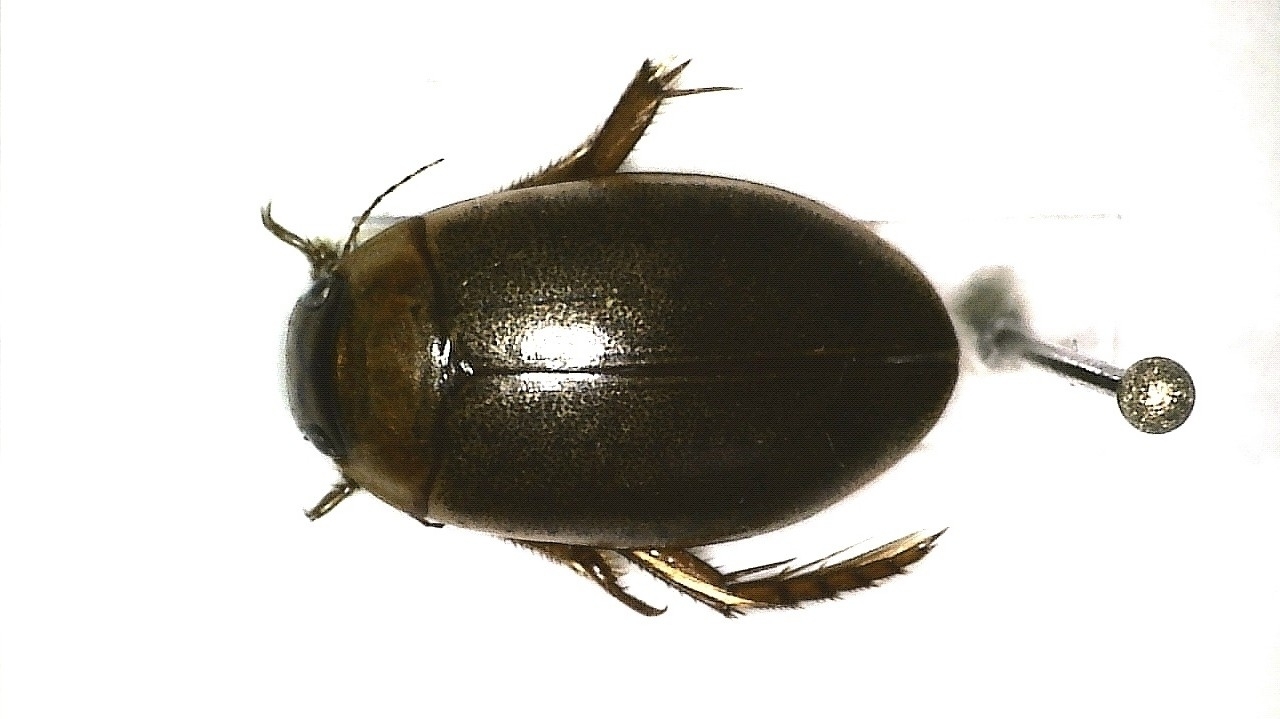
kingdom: Animalia
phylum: Arthropoda
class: Insecta
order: Coleoptera
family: Dytiscidae
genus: Rhantus
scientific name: Rhantus suturellus
